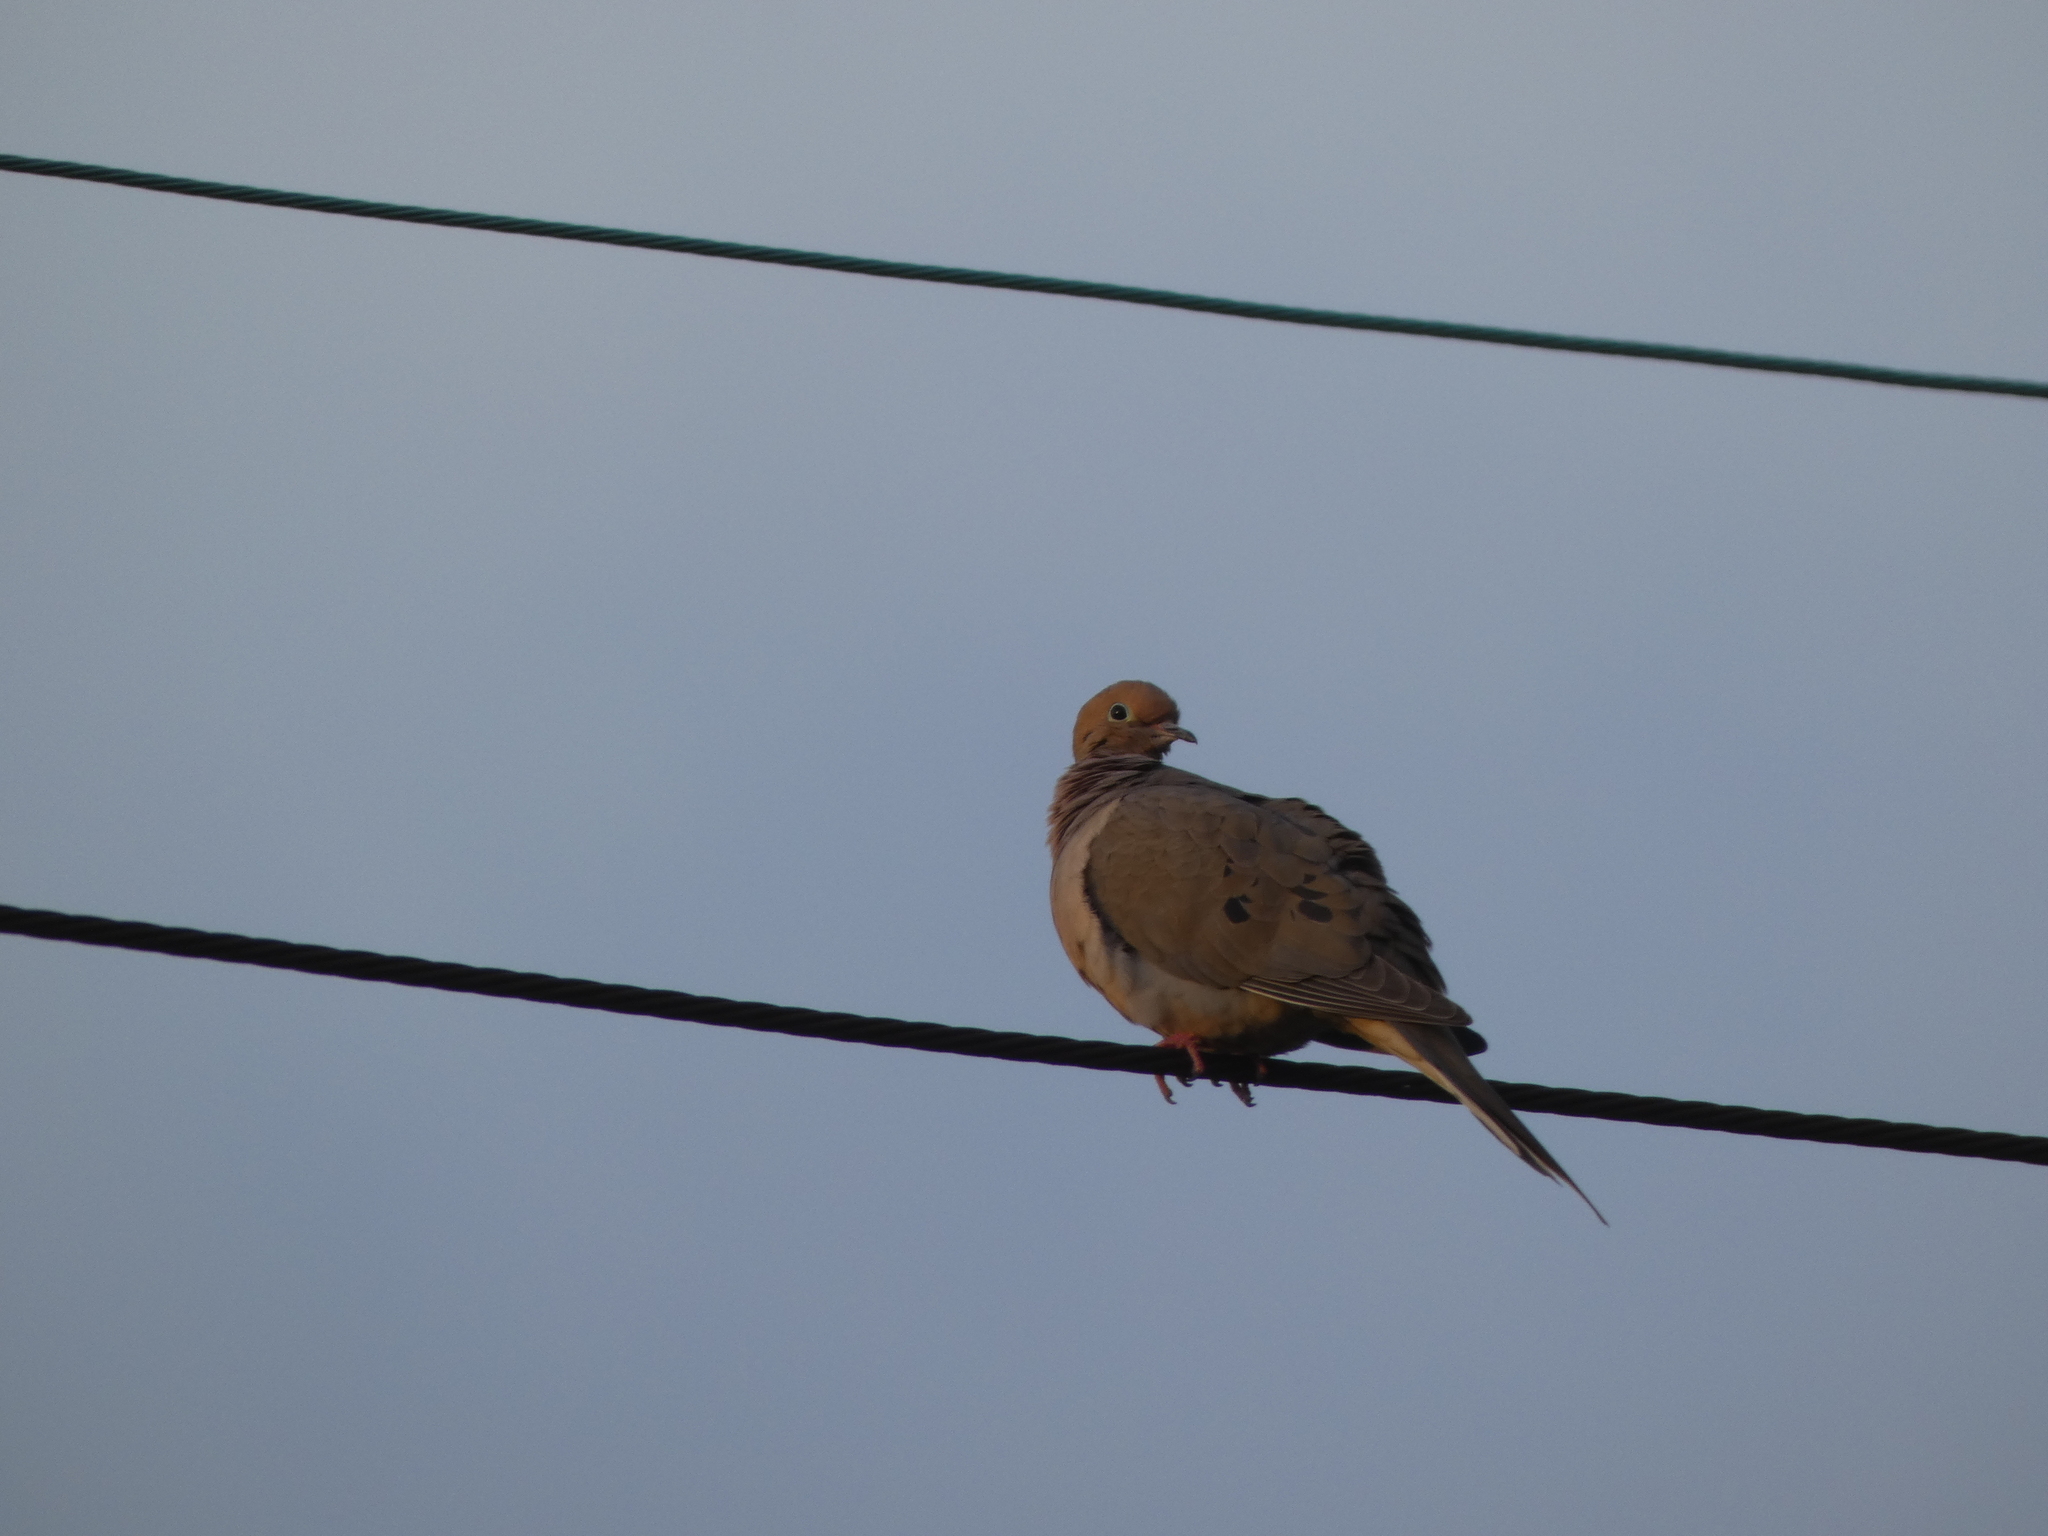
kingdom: Animalia
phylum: Chordata
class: Aves
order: Columbiformes
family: Columbidae
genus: Zenaida
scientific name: Zenaida macroura
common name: Mourning dove
